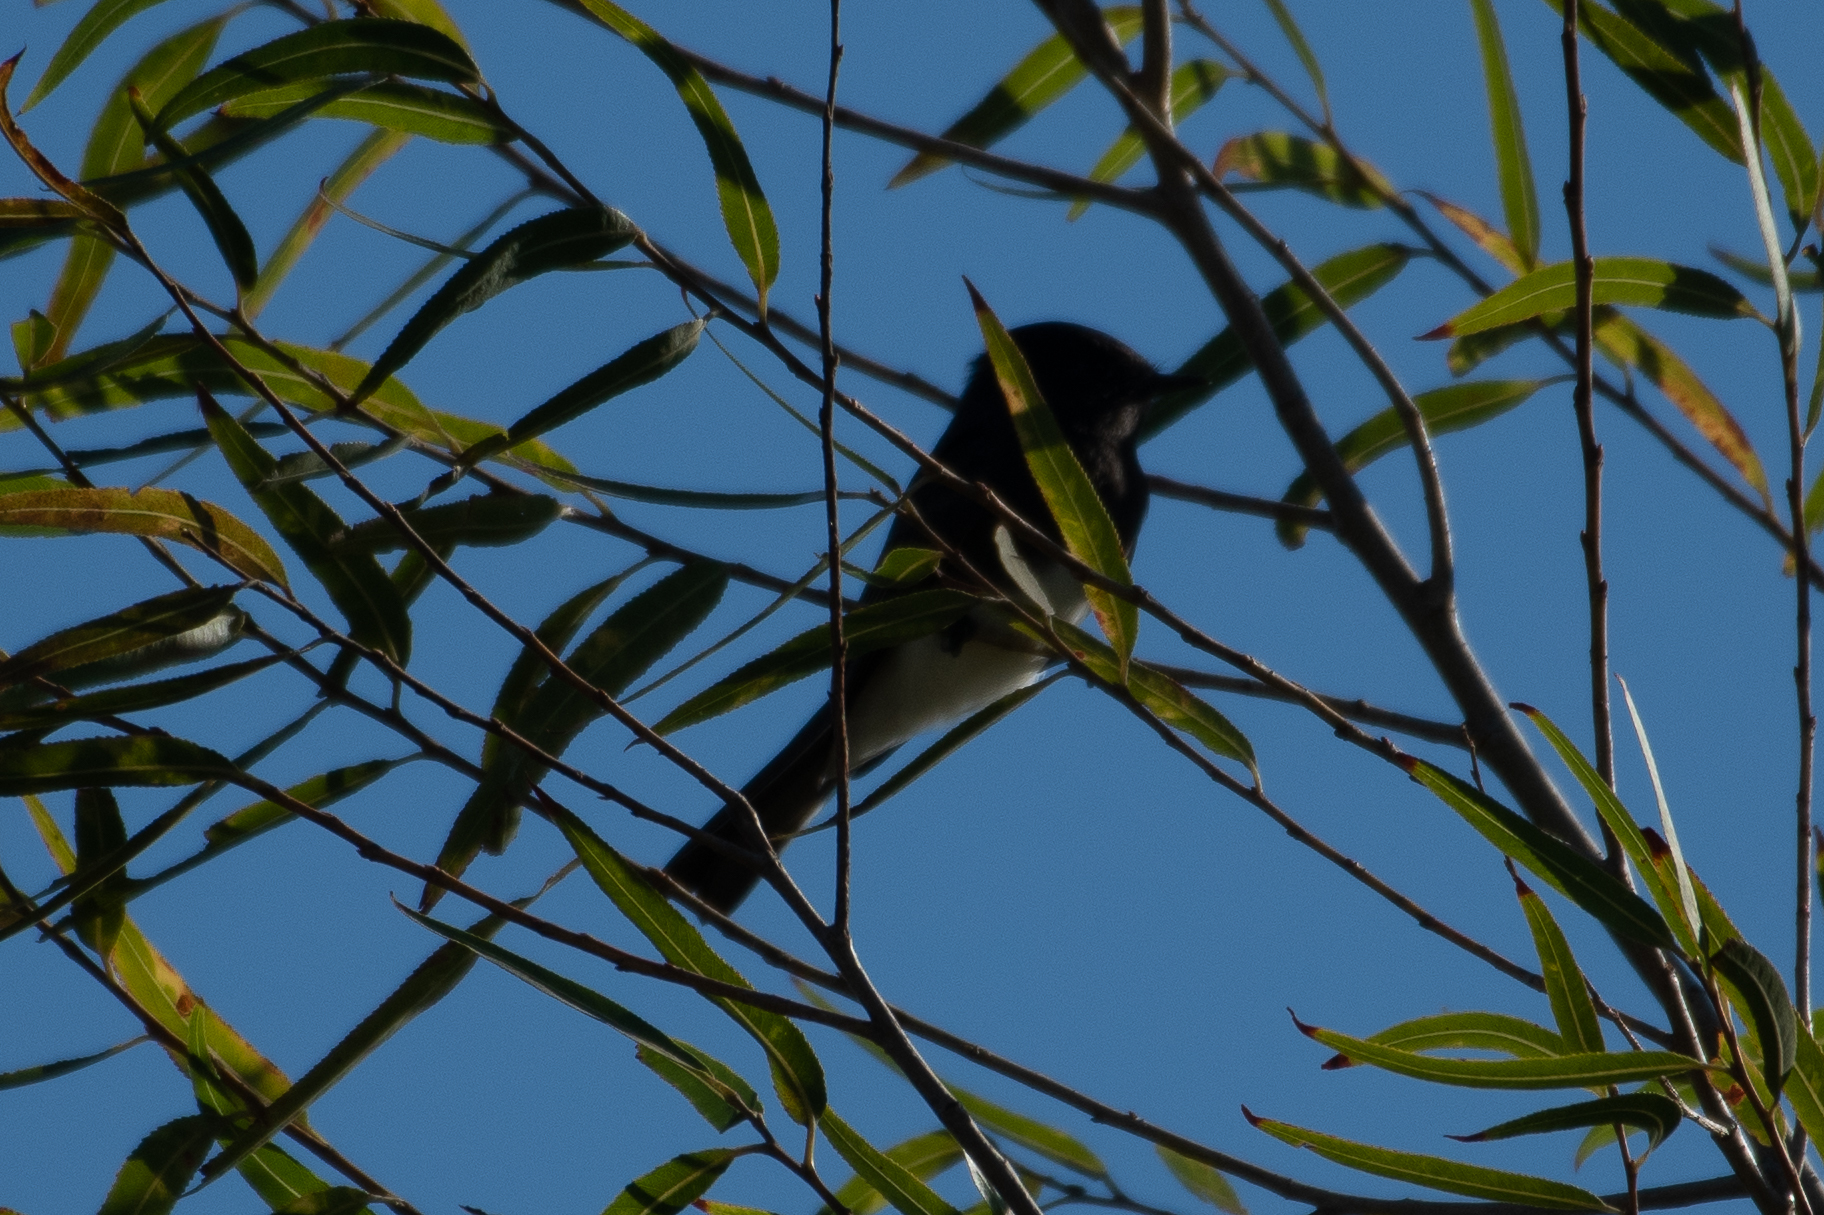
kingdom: Animalia
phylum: Chordata
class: Aves
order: Passeriformes
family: Tyrannidae
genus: Sayornis
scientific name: Sayornis nigricans
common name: Black phoebe
